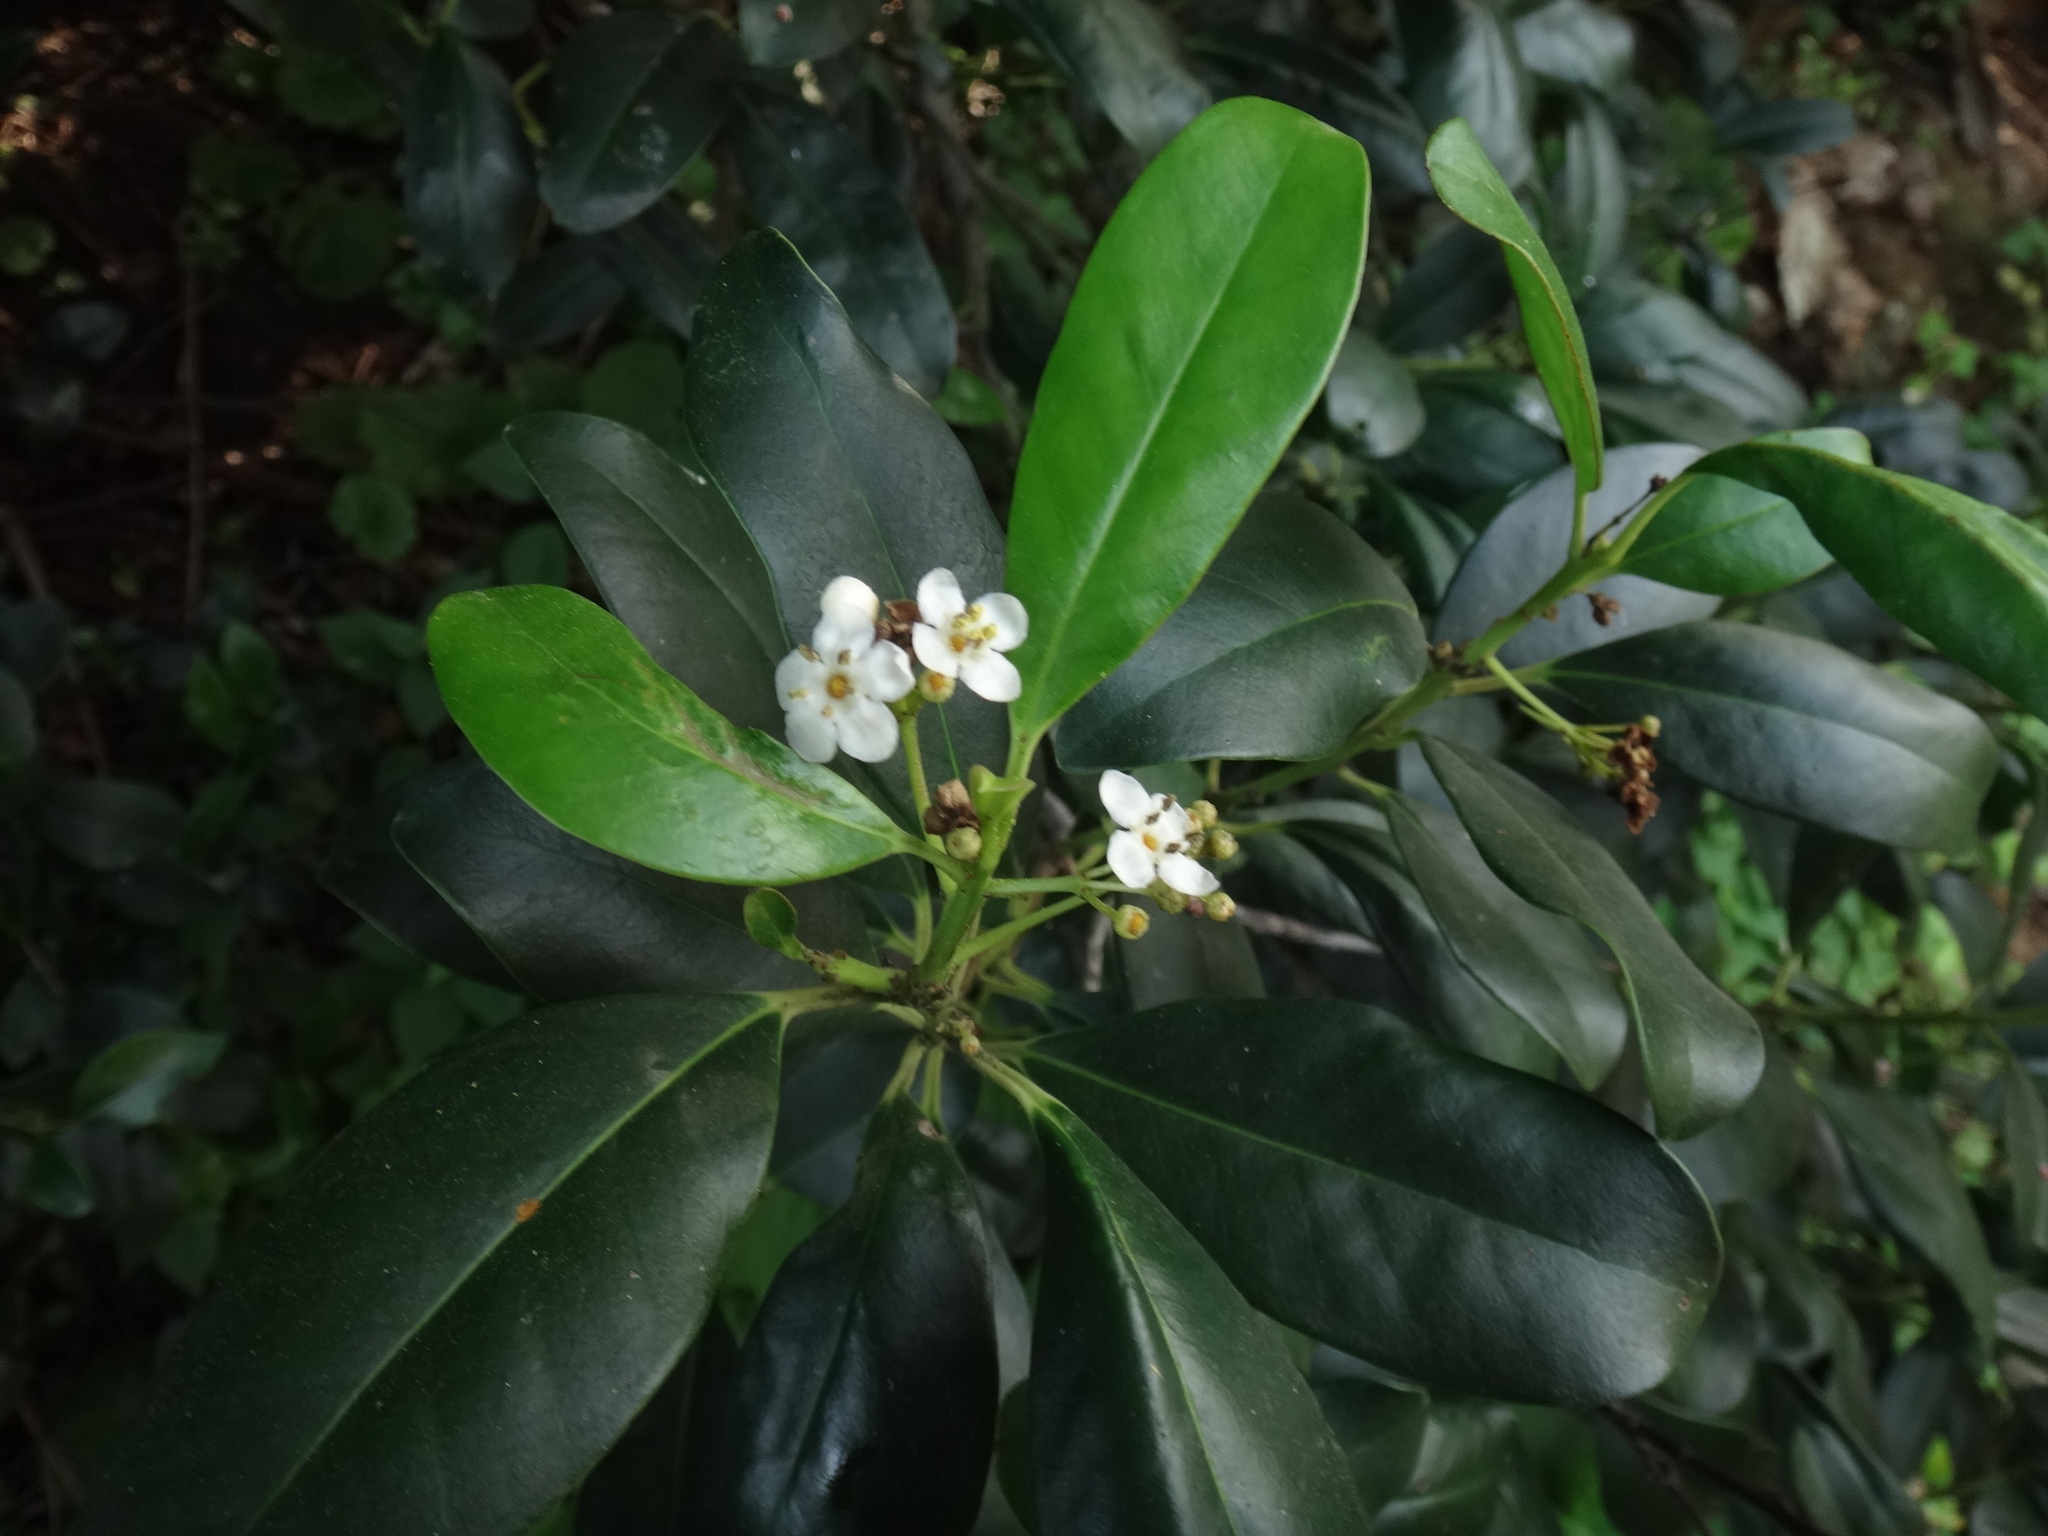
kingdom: Plantae
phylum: Tracheophyta
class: Magnoliopsida
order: Aquifoliales
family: Aquifoliaceae
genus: Ilex
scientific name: Ilex canariensis
